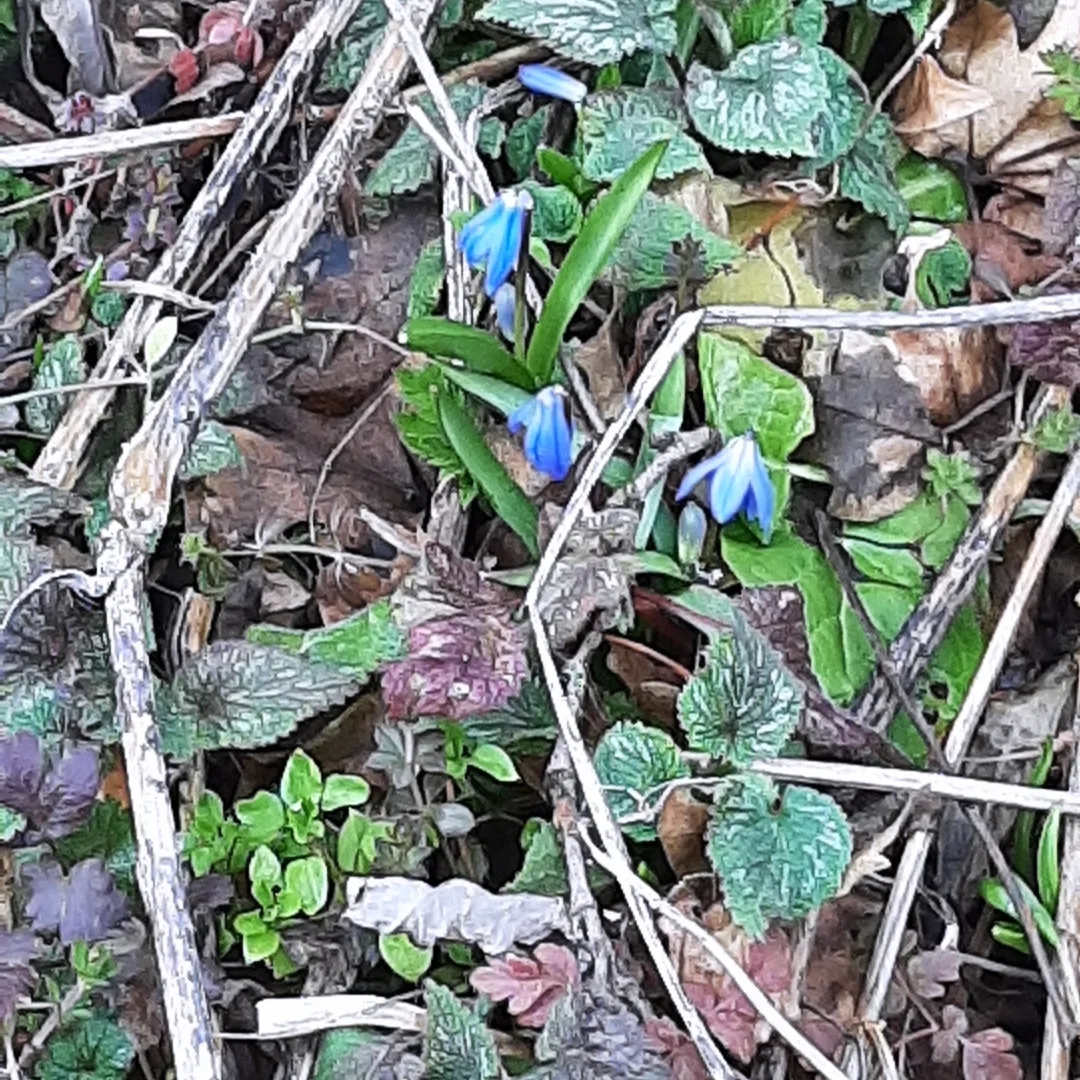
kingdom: Plantae
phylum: Tracheophyta
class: Liliopsida
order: Asparagales
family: Asparagaceae
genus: Scilla
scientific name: Scilla siberica
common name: Siberian squill
